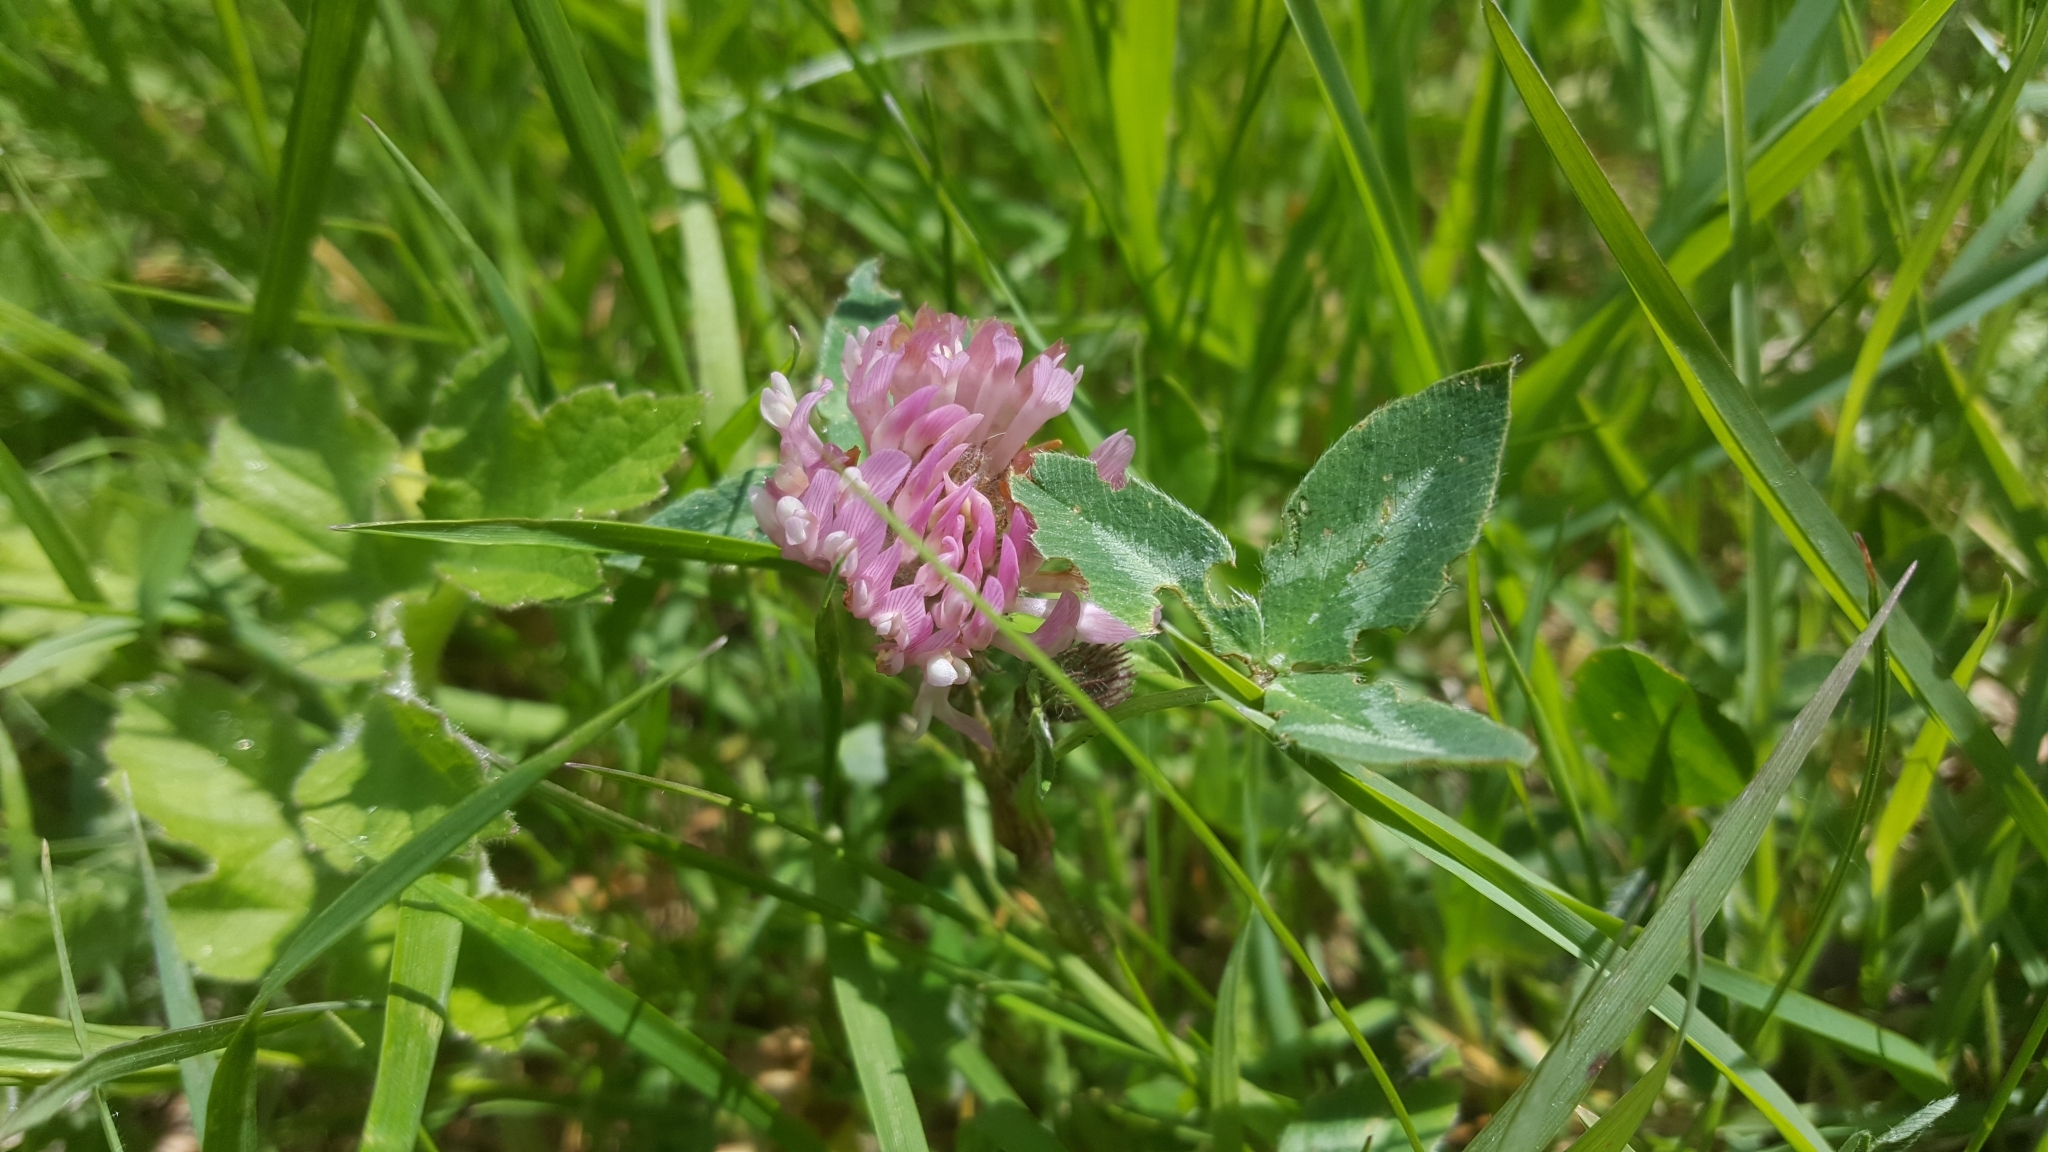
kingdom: Plantae
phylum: Tracheophyta
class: Magnoliopsida
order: Fabales
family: Fabaceae
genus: Trifolium
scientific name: Trifolium pratense
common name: Red clover
